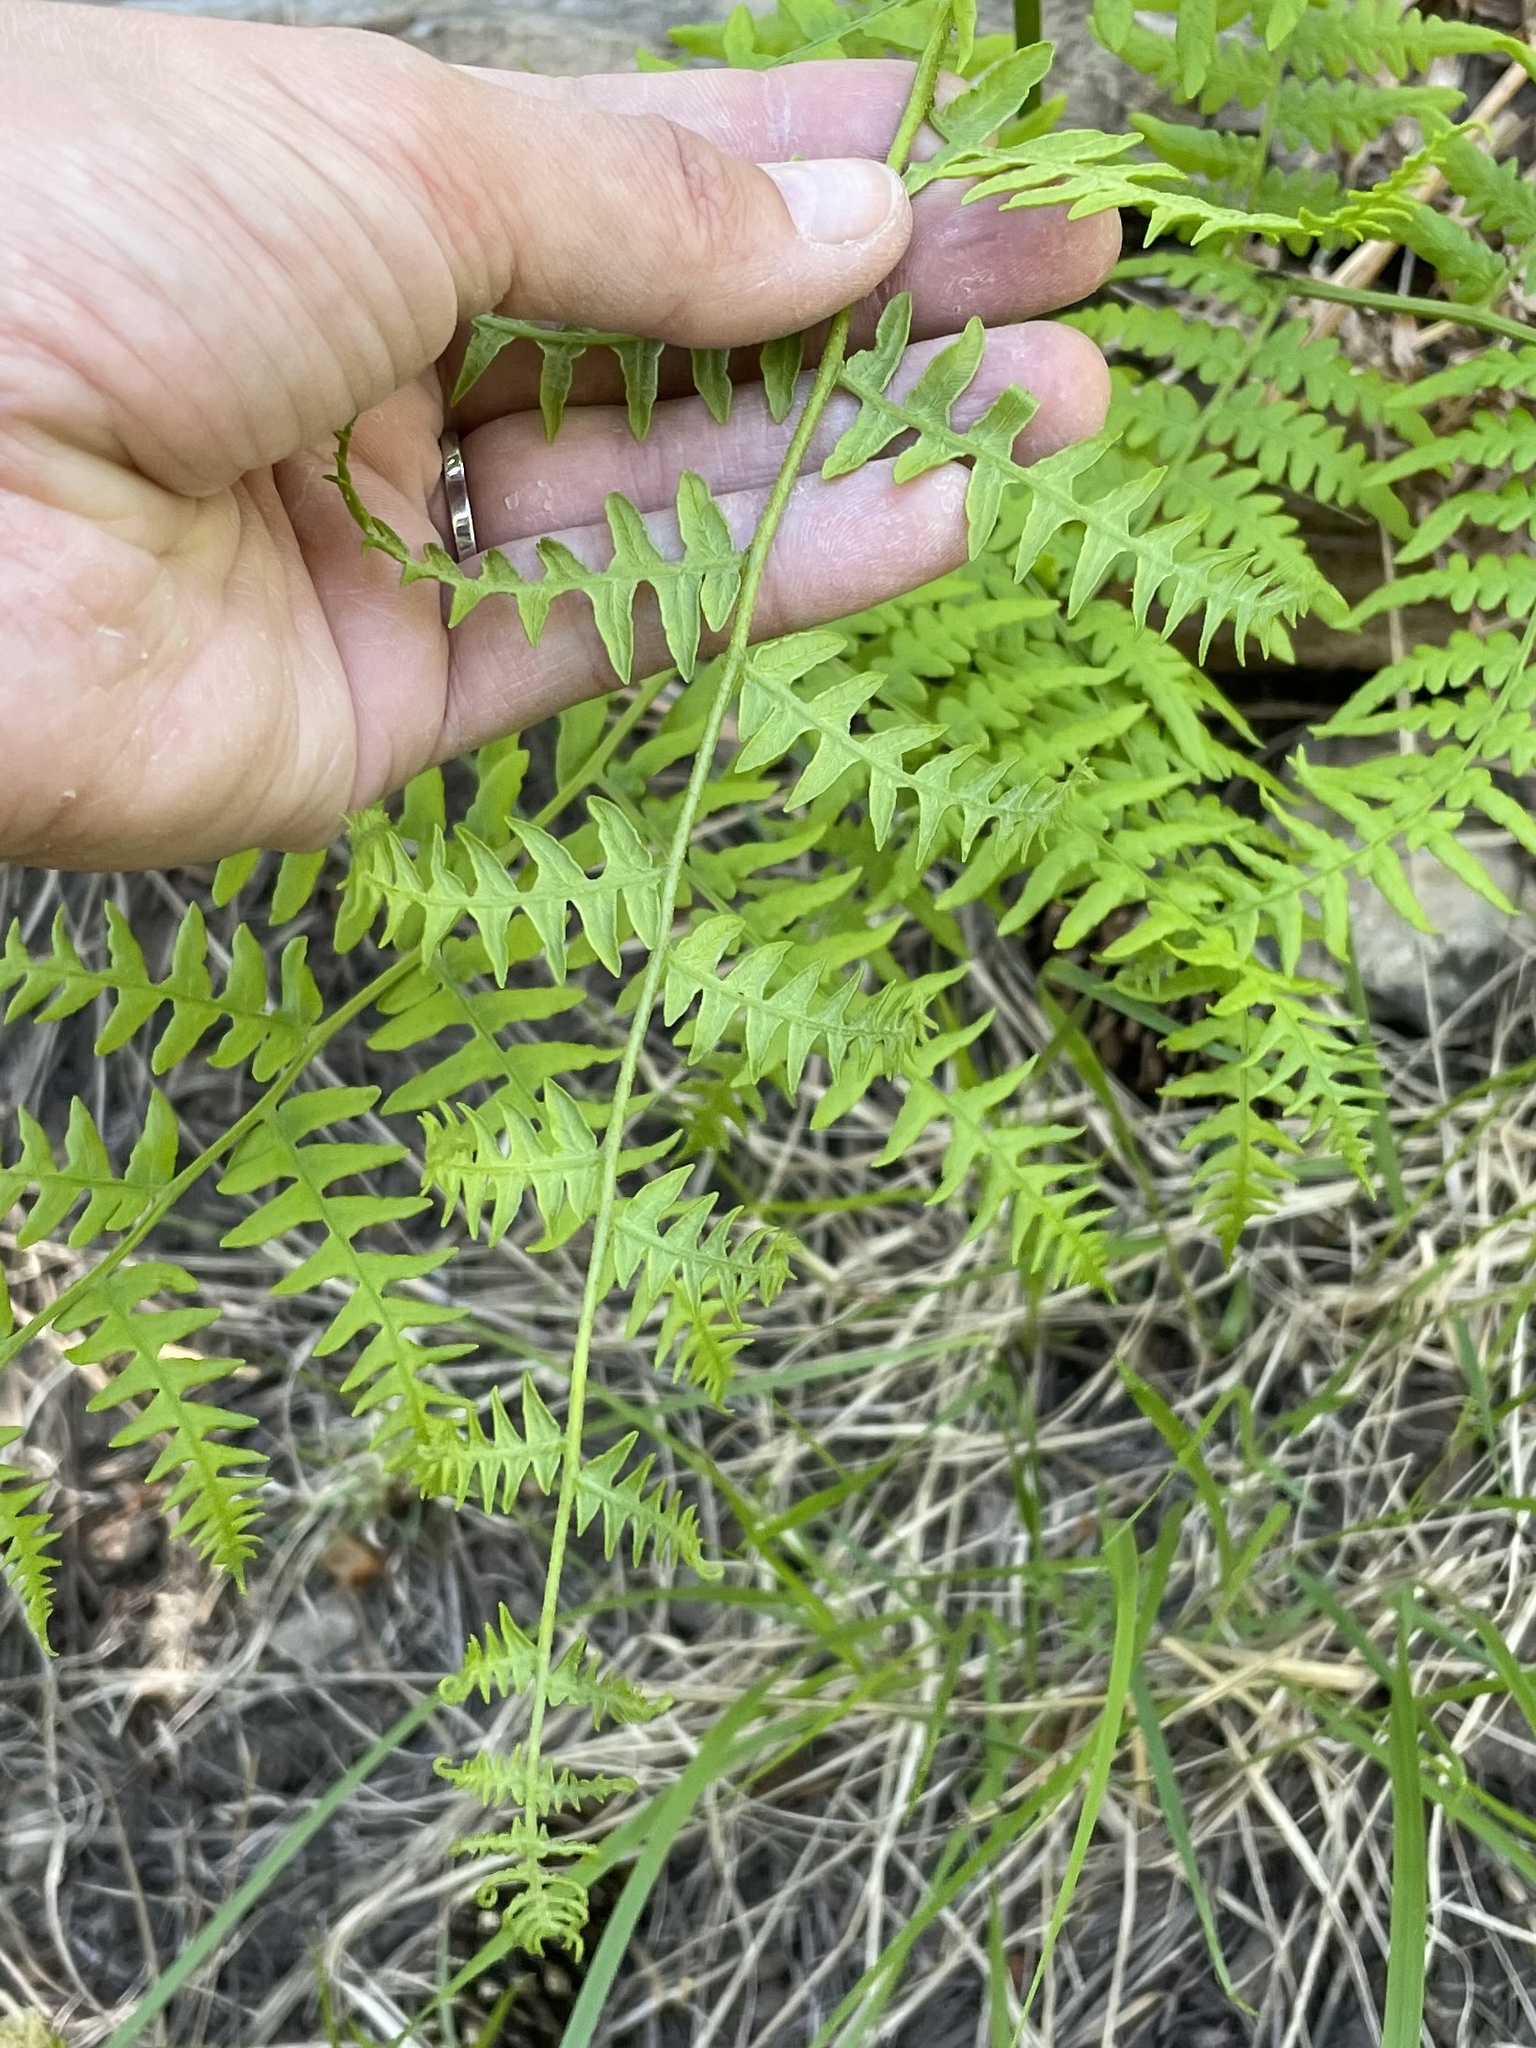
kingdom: Plantae
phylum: Tracheophyta
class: Polypodiopsida
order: Polypodiales
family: Dennstaedtiaceae
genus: Pteridium
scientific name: Pteridium aquilinum
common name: Bracken
